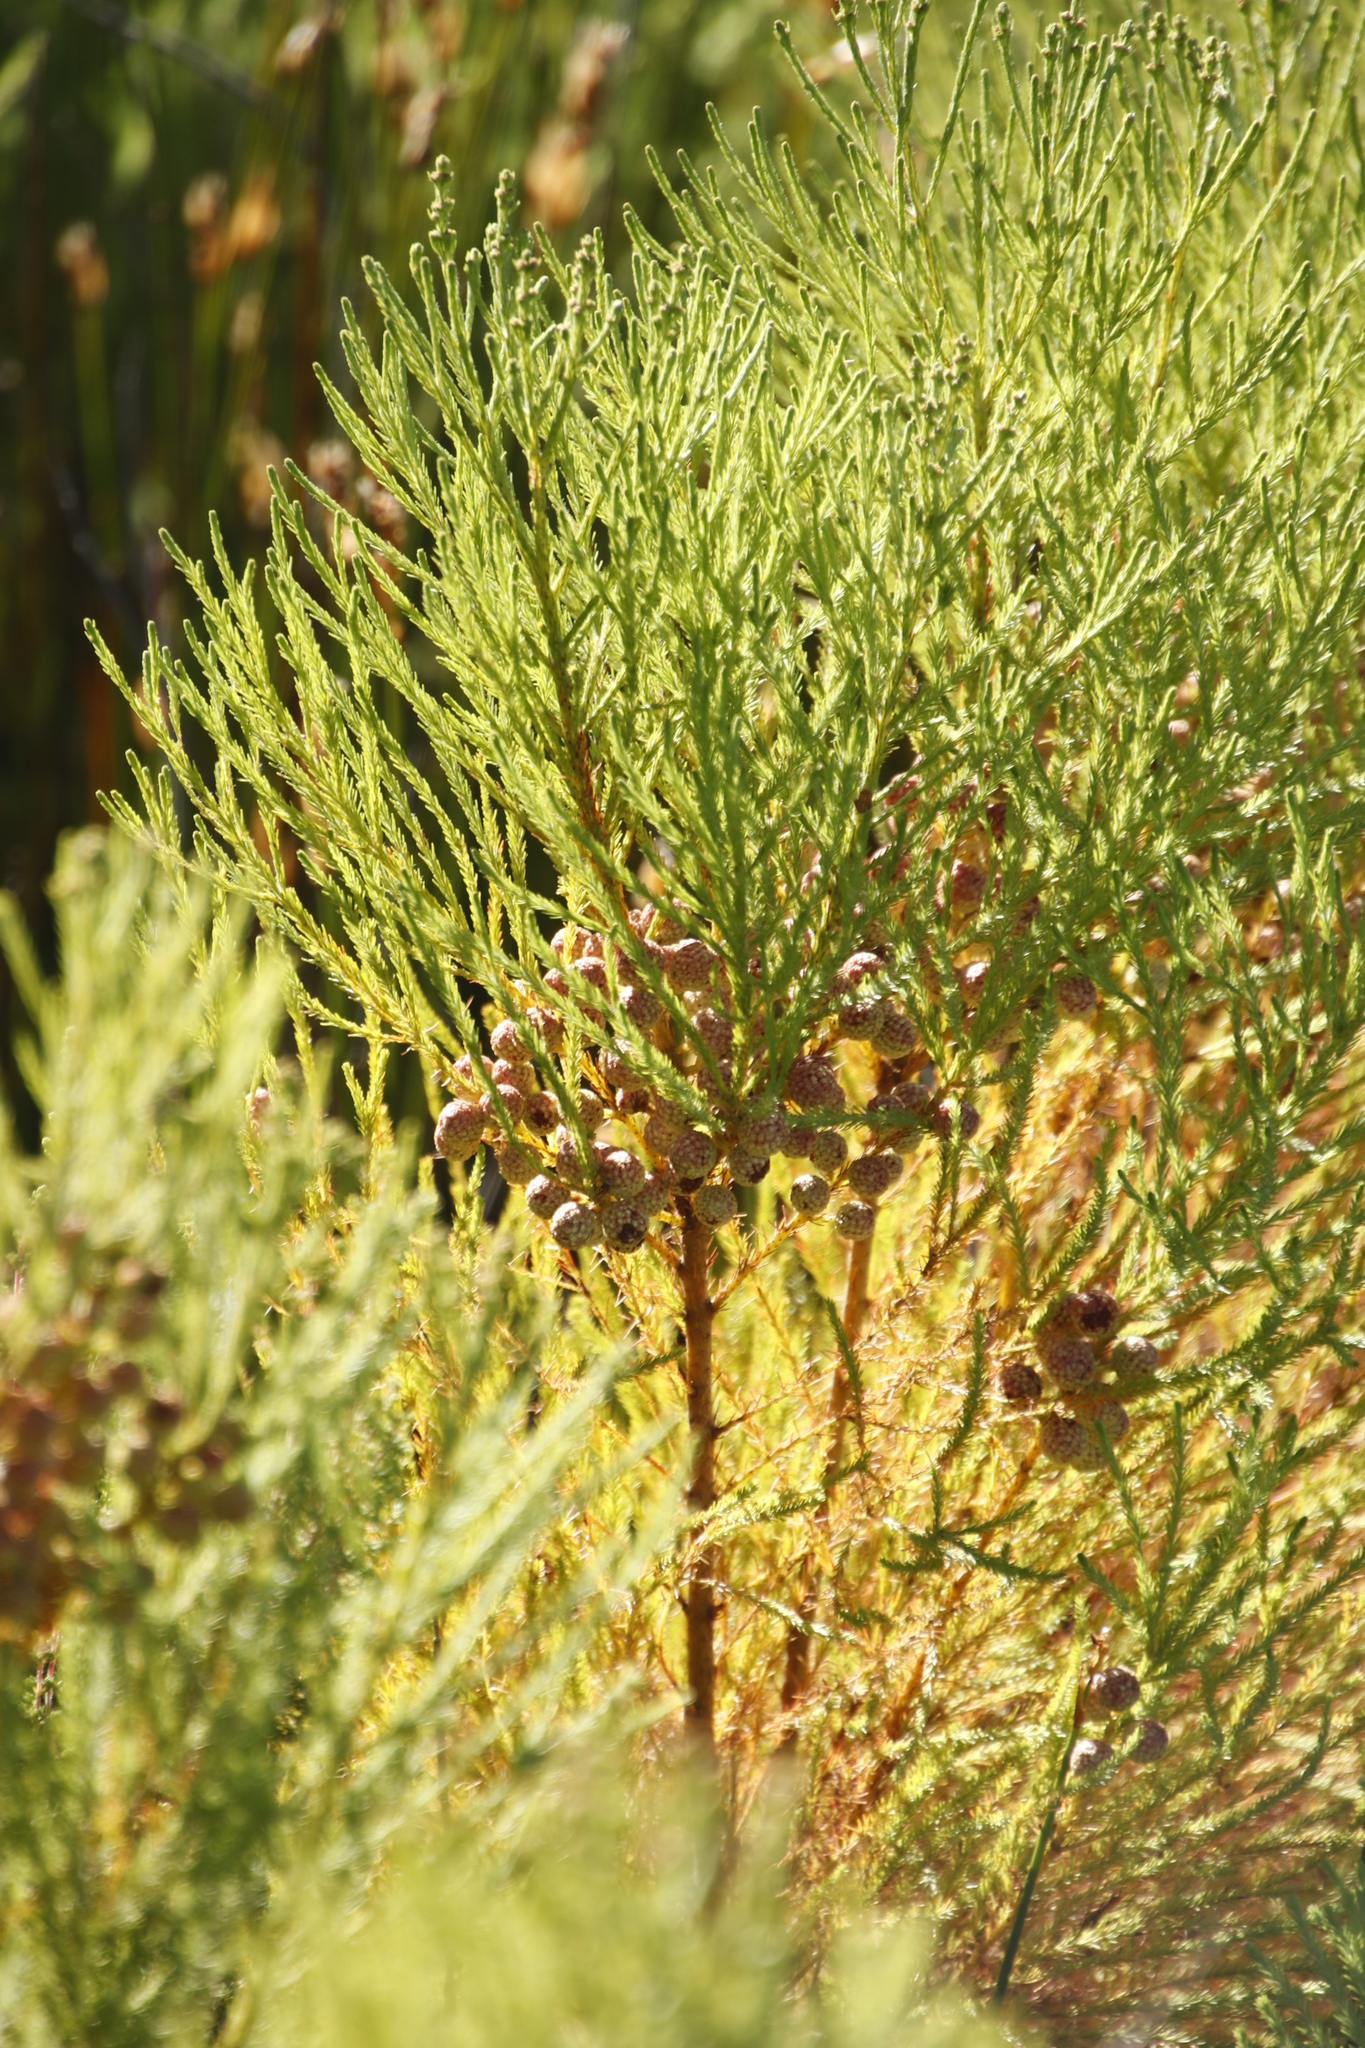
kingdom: Plantae
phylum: Tracheophyta
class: Magnoliopsida
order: Bruniales
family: Bruniaceae
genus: Berzelia
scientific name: Berzelia lanuginosa
